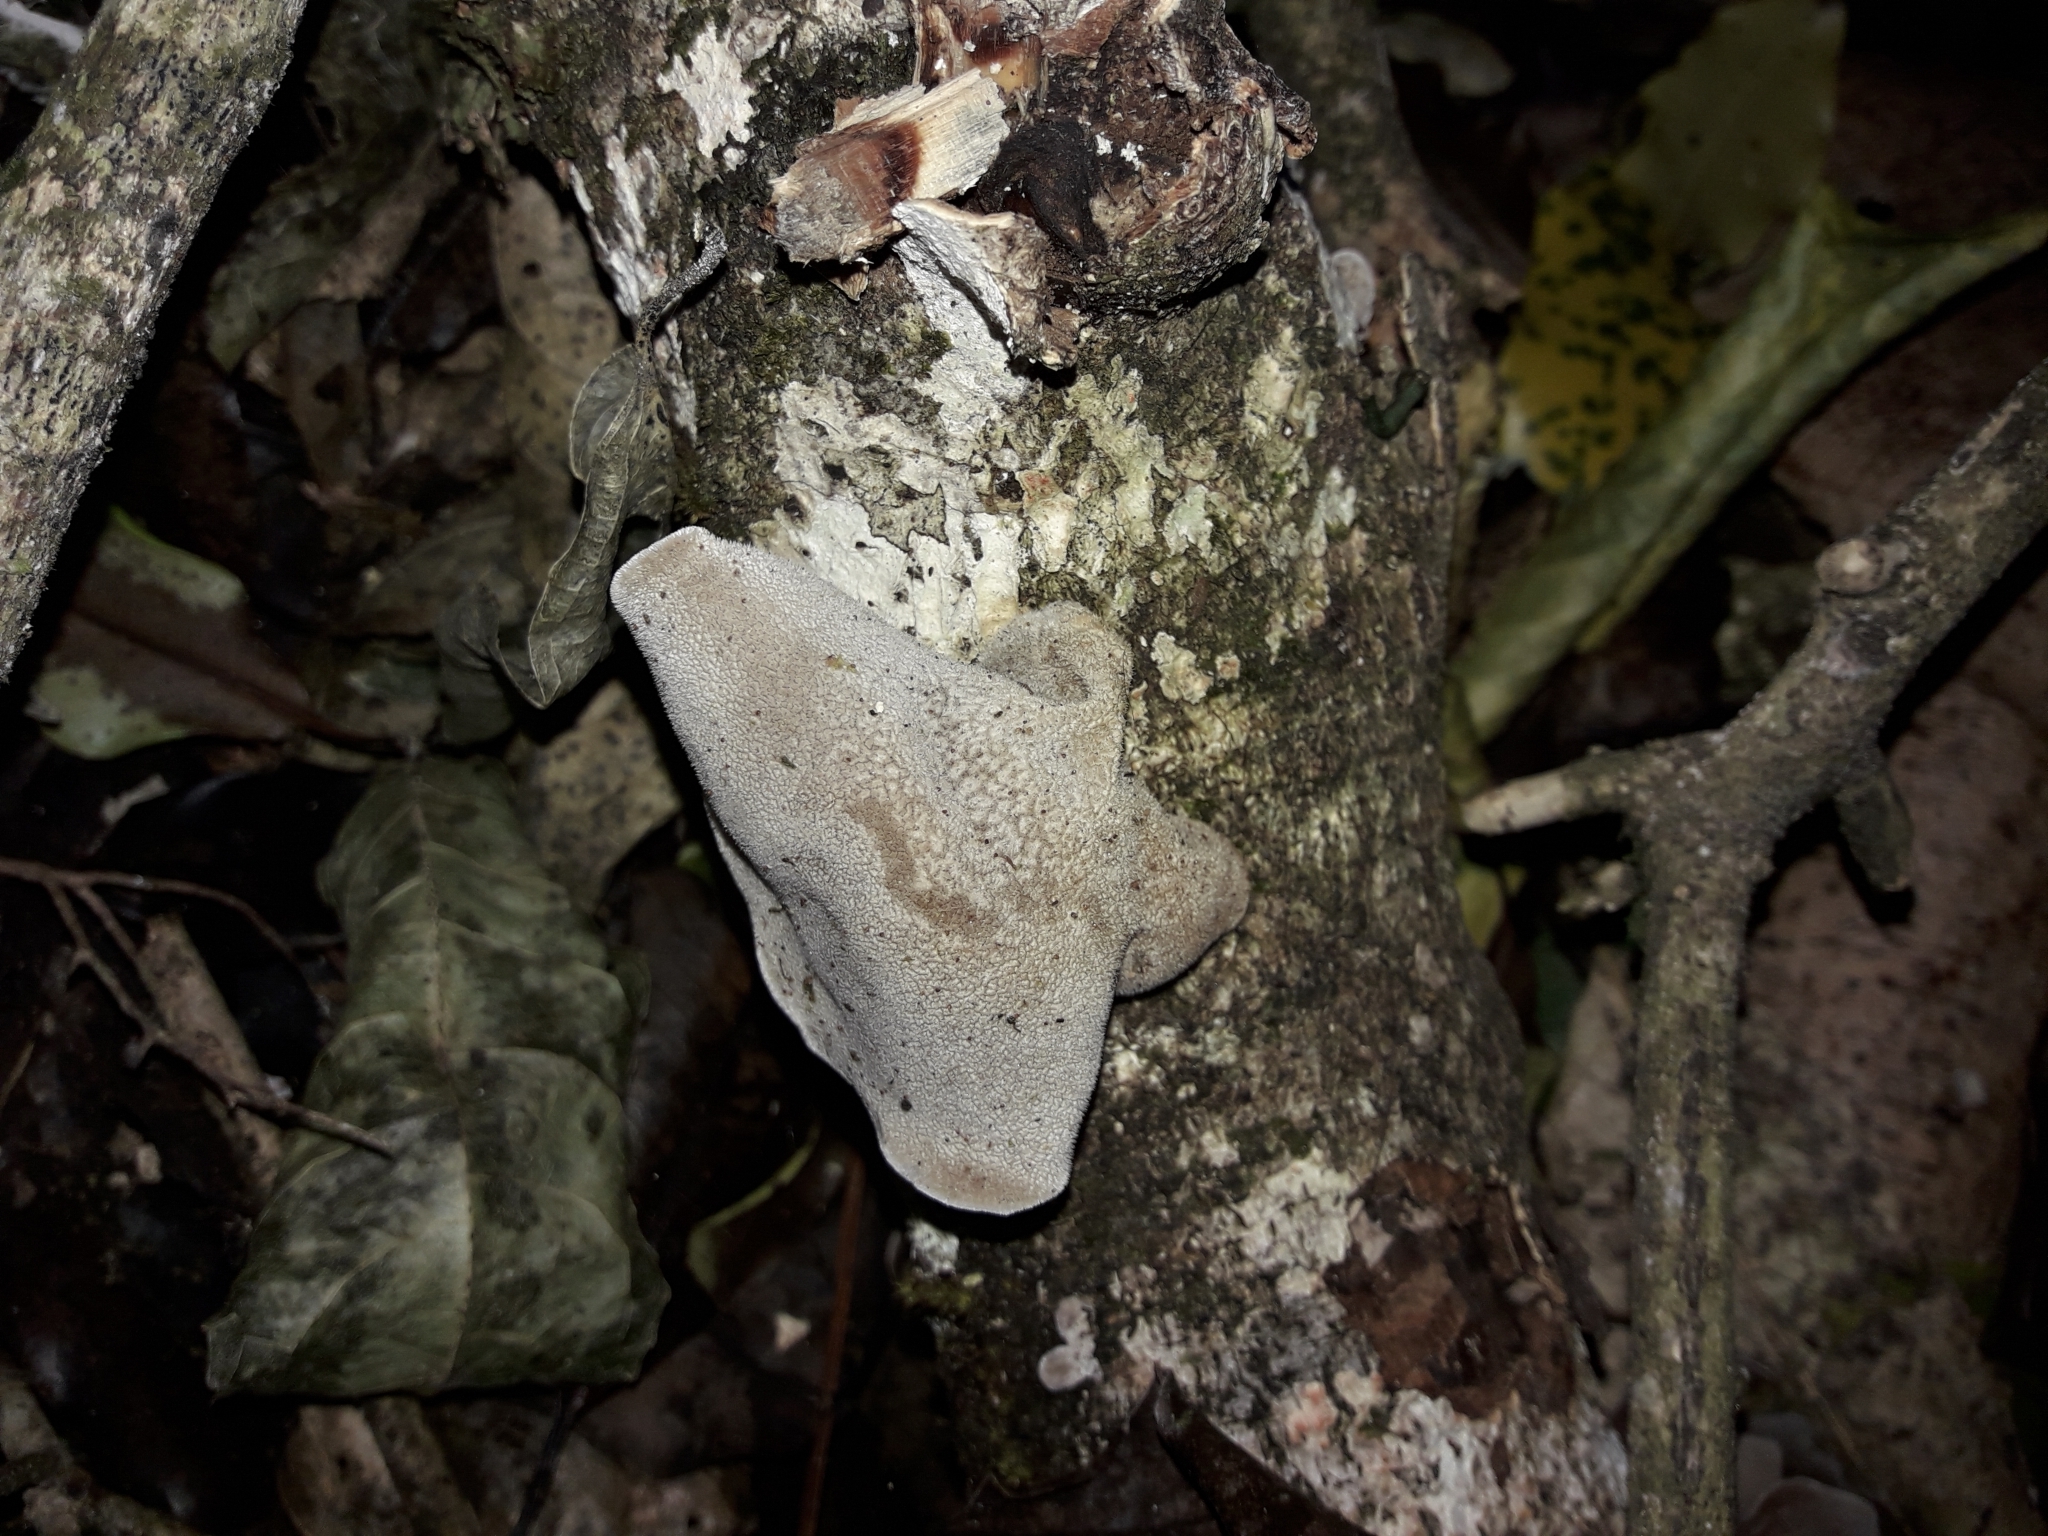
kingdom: Fungi
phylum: Basidiomycota
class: Agaricomycetes
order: Auriculariales
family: Auriculariaceae
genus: Auricularia
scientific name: Auricularia cornea
